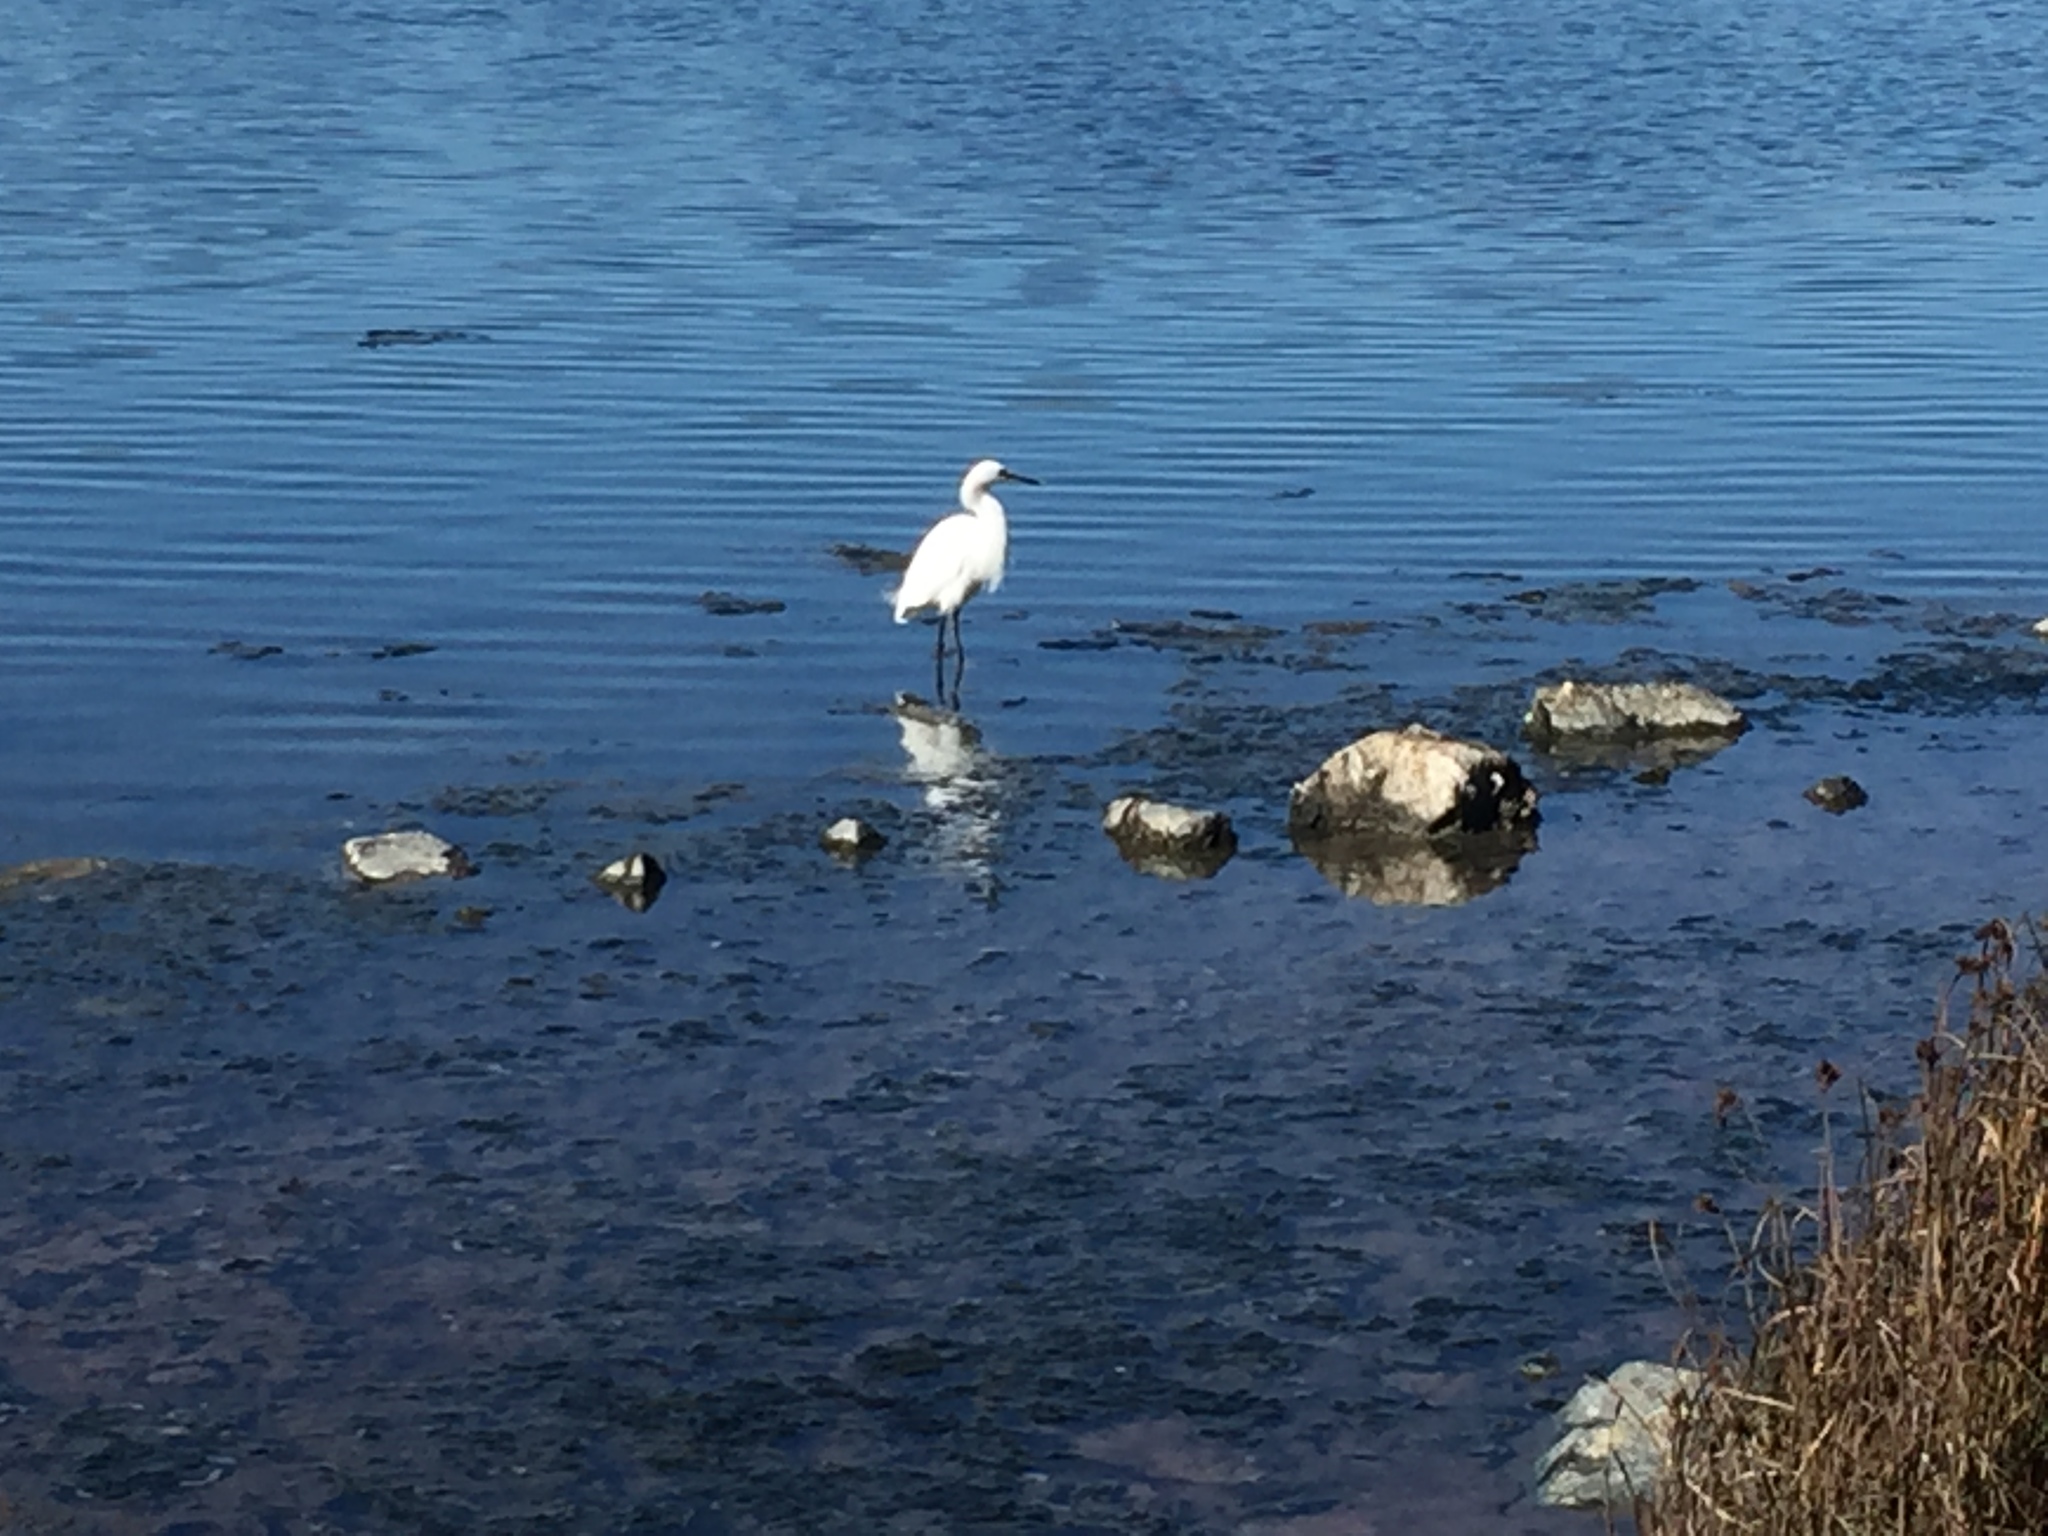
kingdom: Animalia
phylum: Chordata
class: Aves
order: Pelecaniformes
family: Ardeidae
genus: Egretta
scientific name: Egretta thula
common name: Snowy egret
